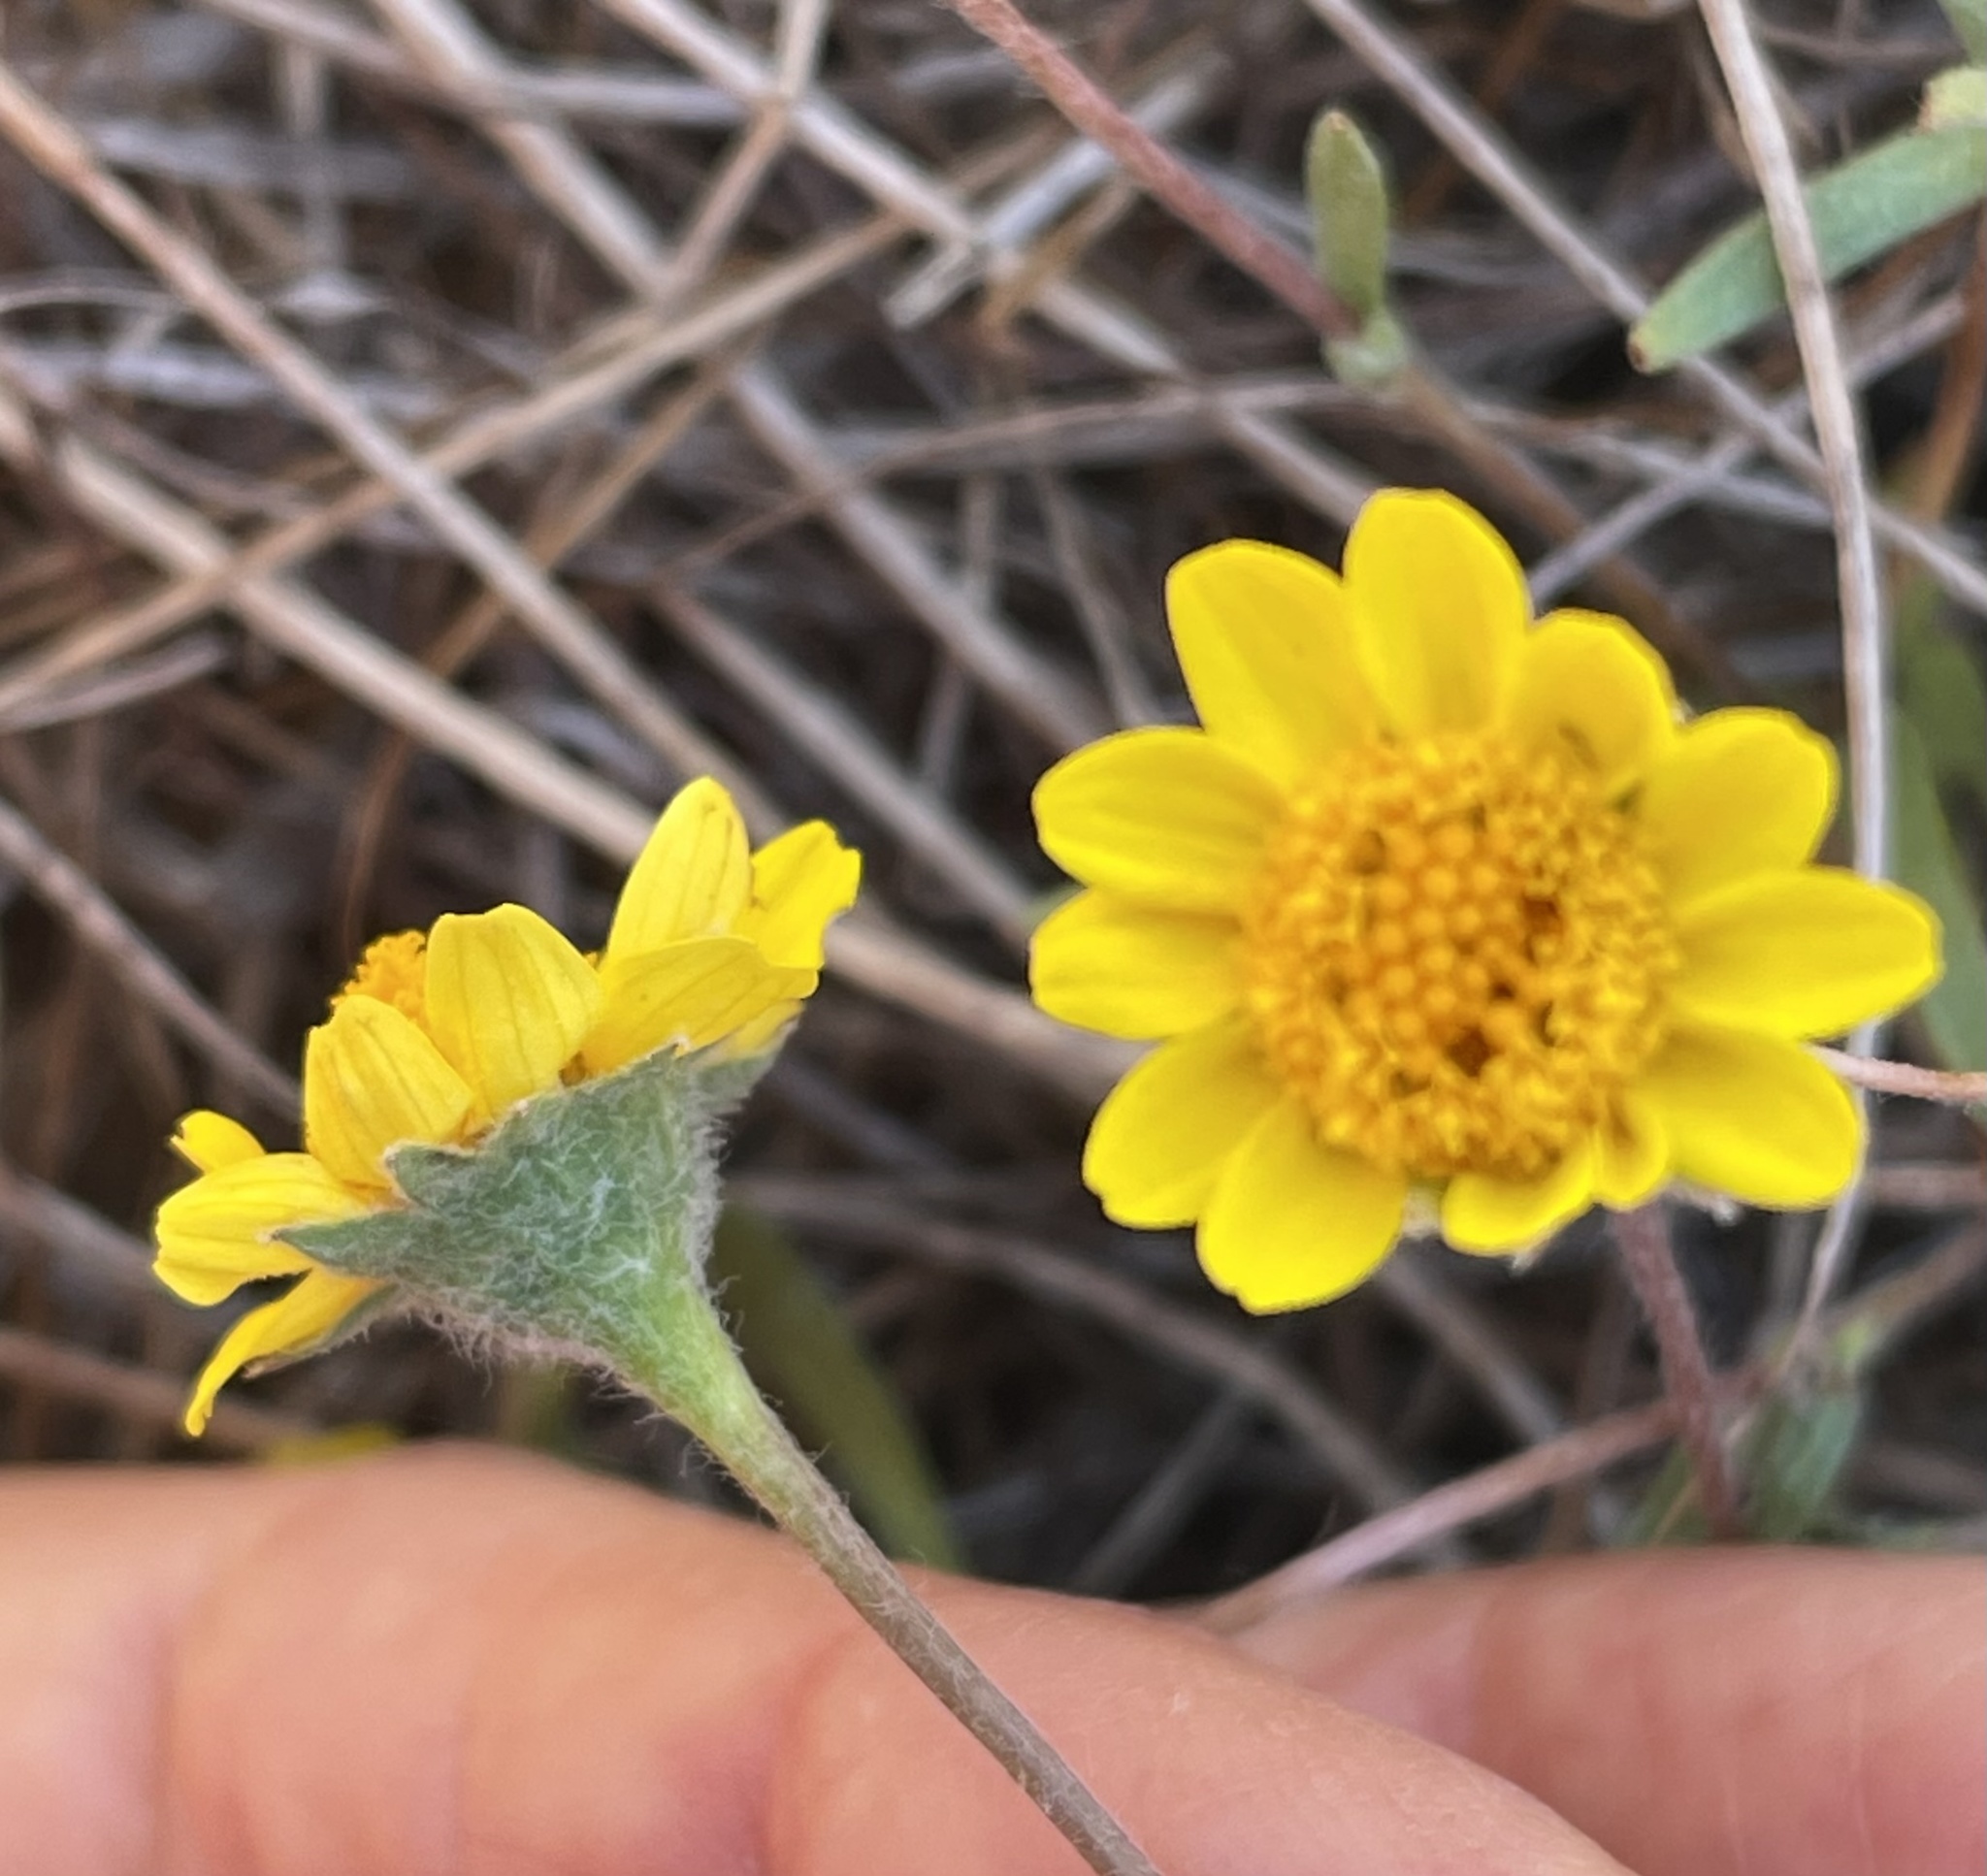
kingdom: Plantae
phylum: Tracheophyta
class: Magnoliopsida
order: Asterales
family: Asteraceae
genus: Lasthenia
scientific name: Lasthenia conjugens
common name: Contra costa goldfields
